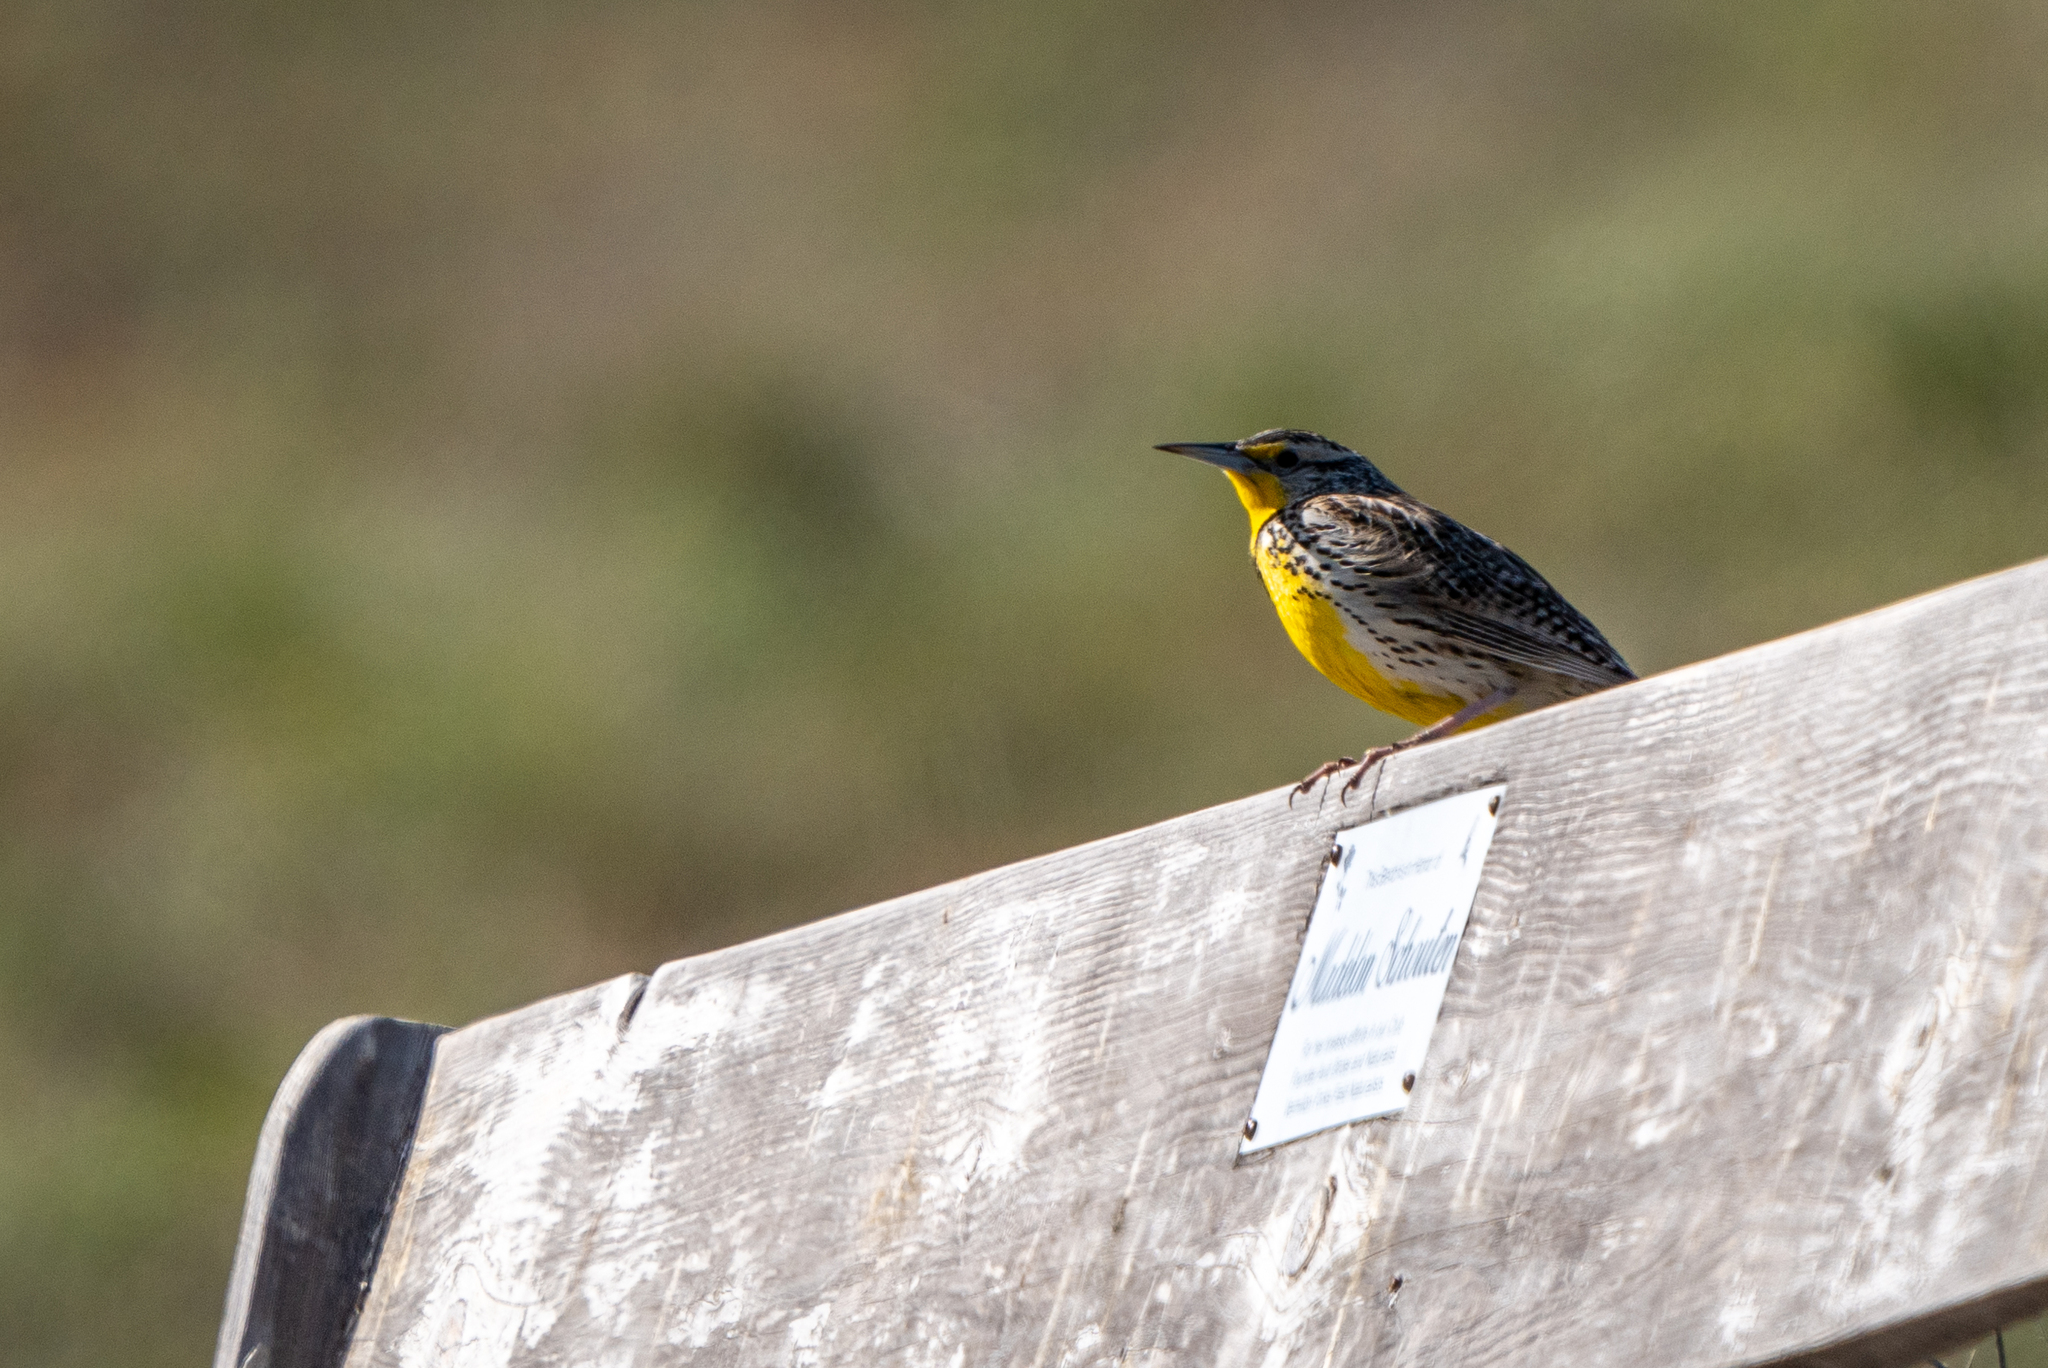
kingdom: Animalia
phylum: Chordata
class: Aves
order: Passeriformes
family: Icteridae
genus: Sturnella
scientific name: Sturnella neglecta
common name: Western meadowlark
